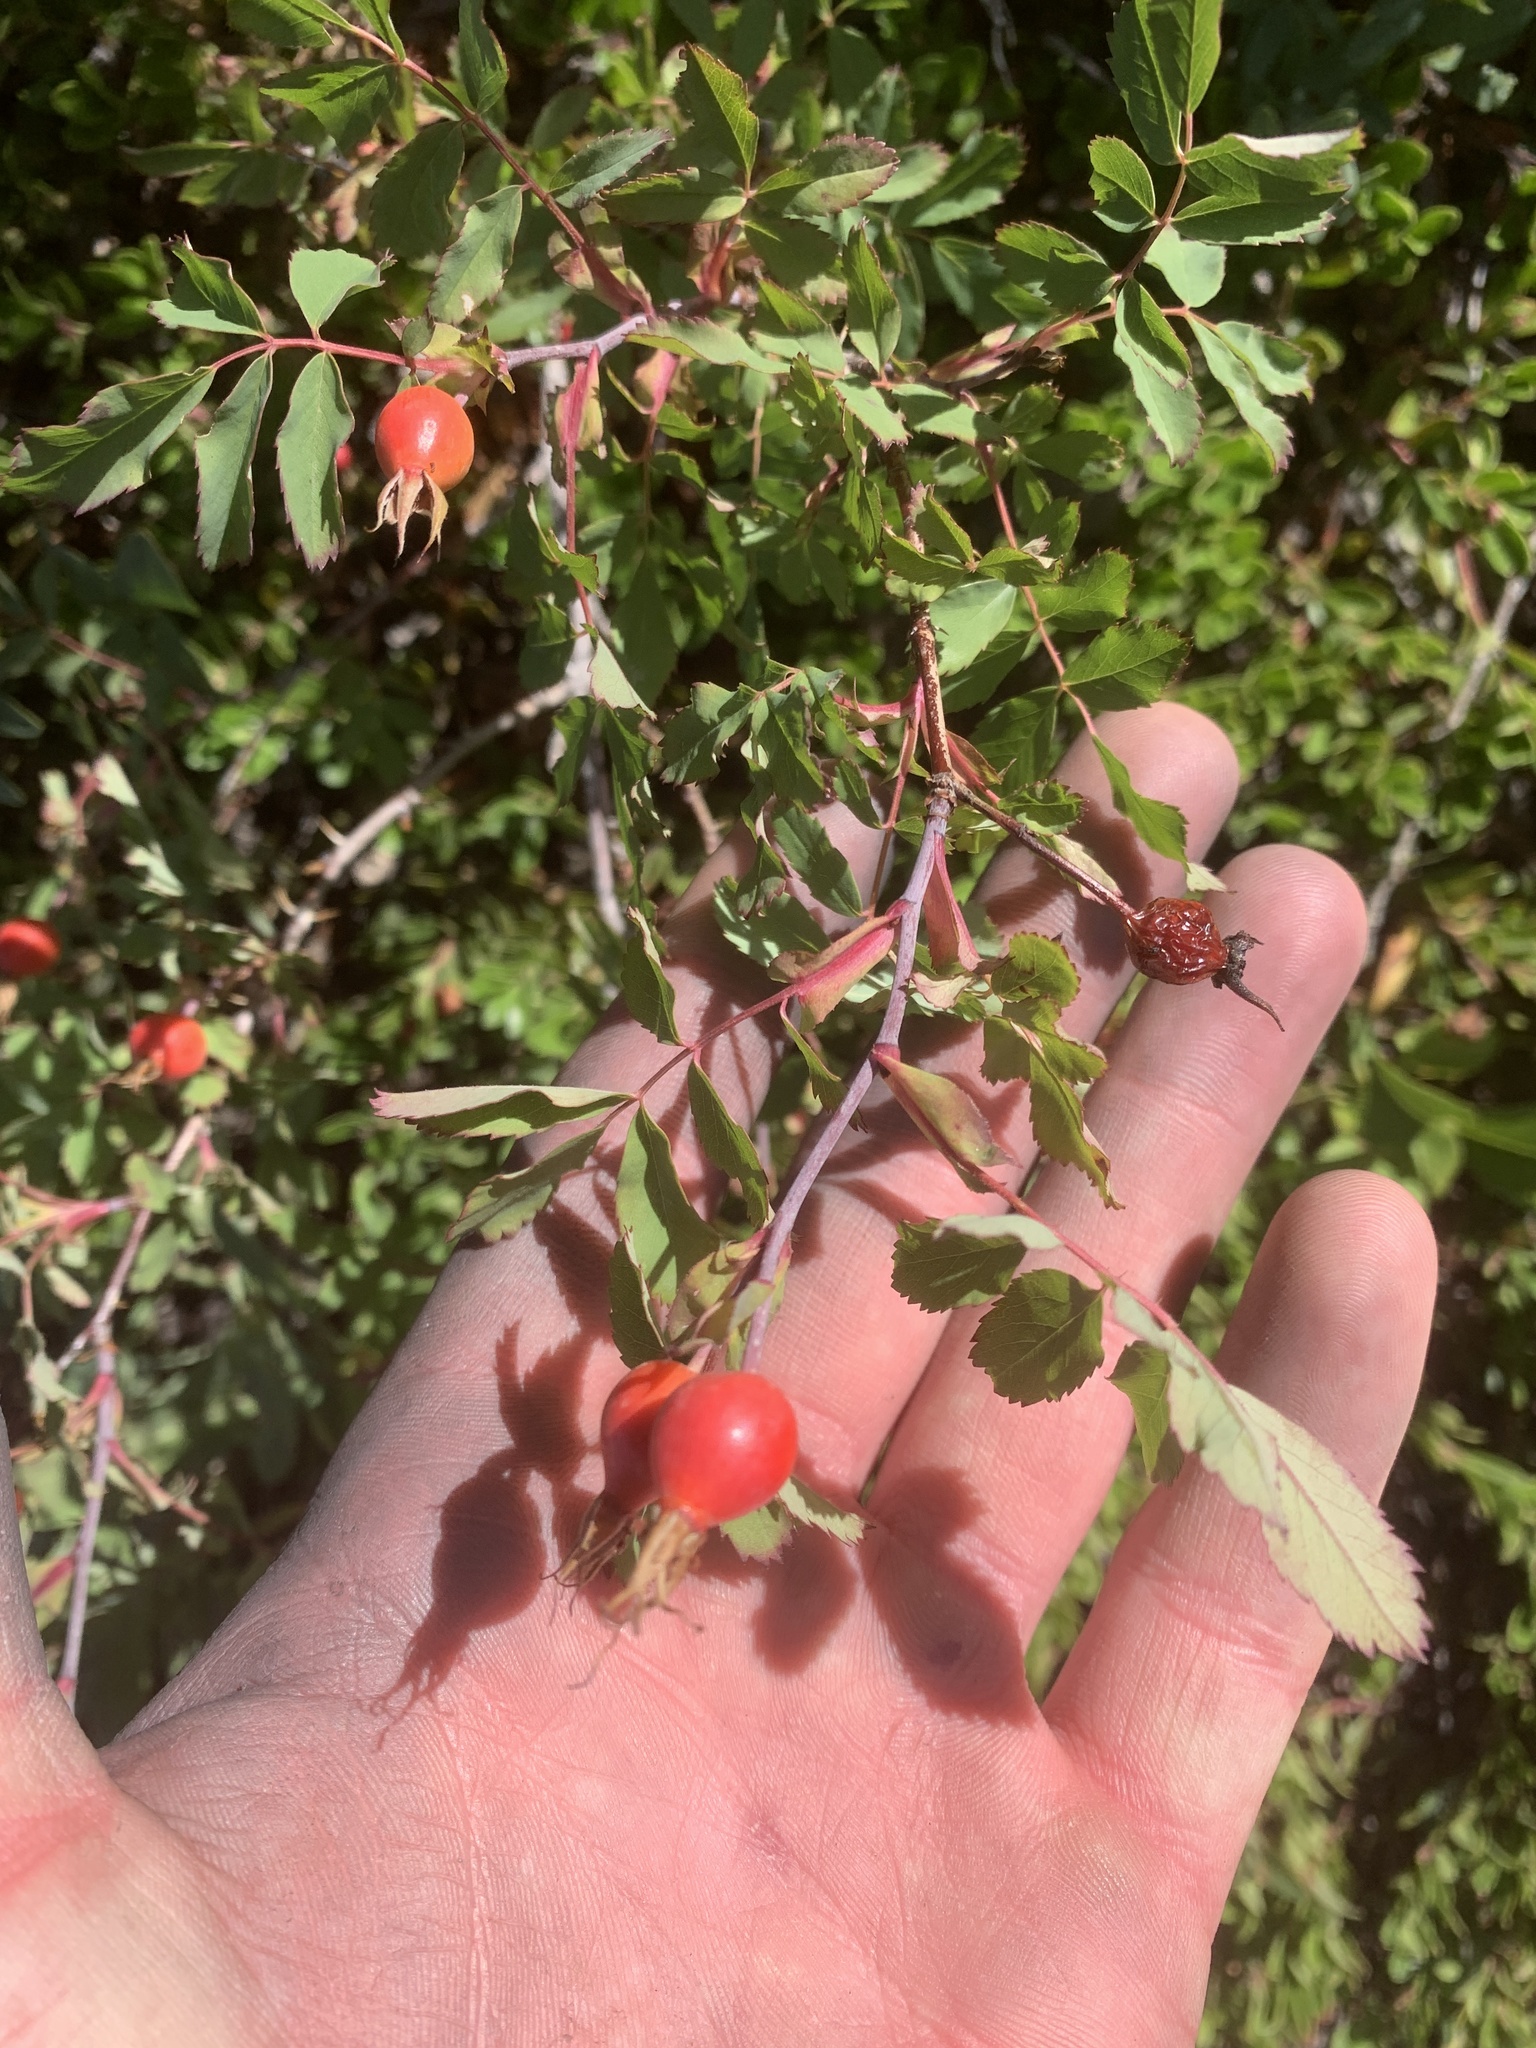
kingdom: Plantae
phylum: Tracheophyta
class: Magnoliopsida
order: Rosales
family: Rosaceae
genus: Rosa
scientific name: Rosa woodsii
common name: Woods's rose
